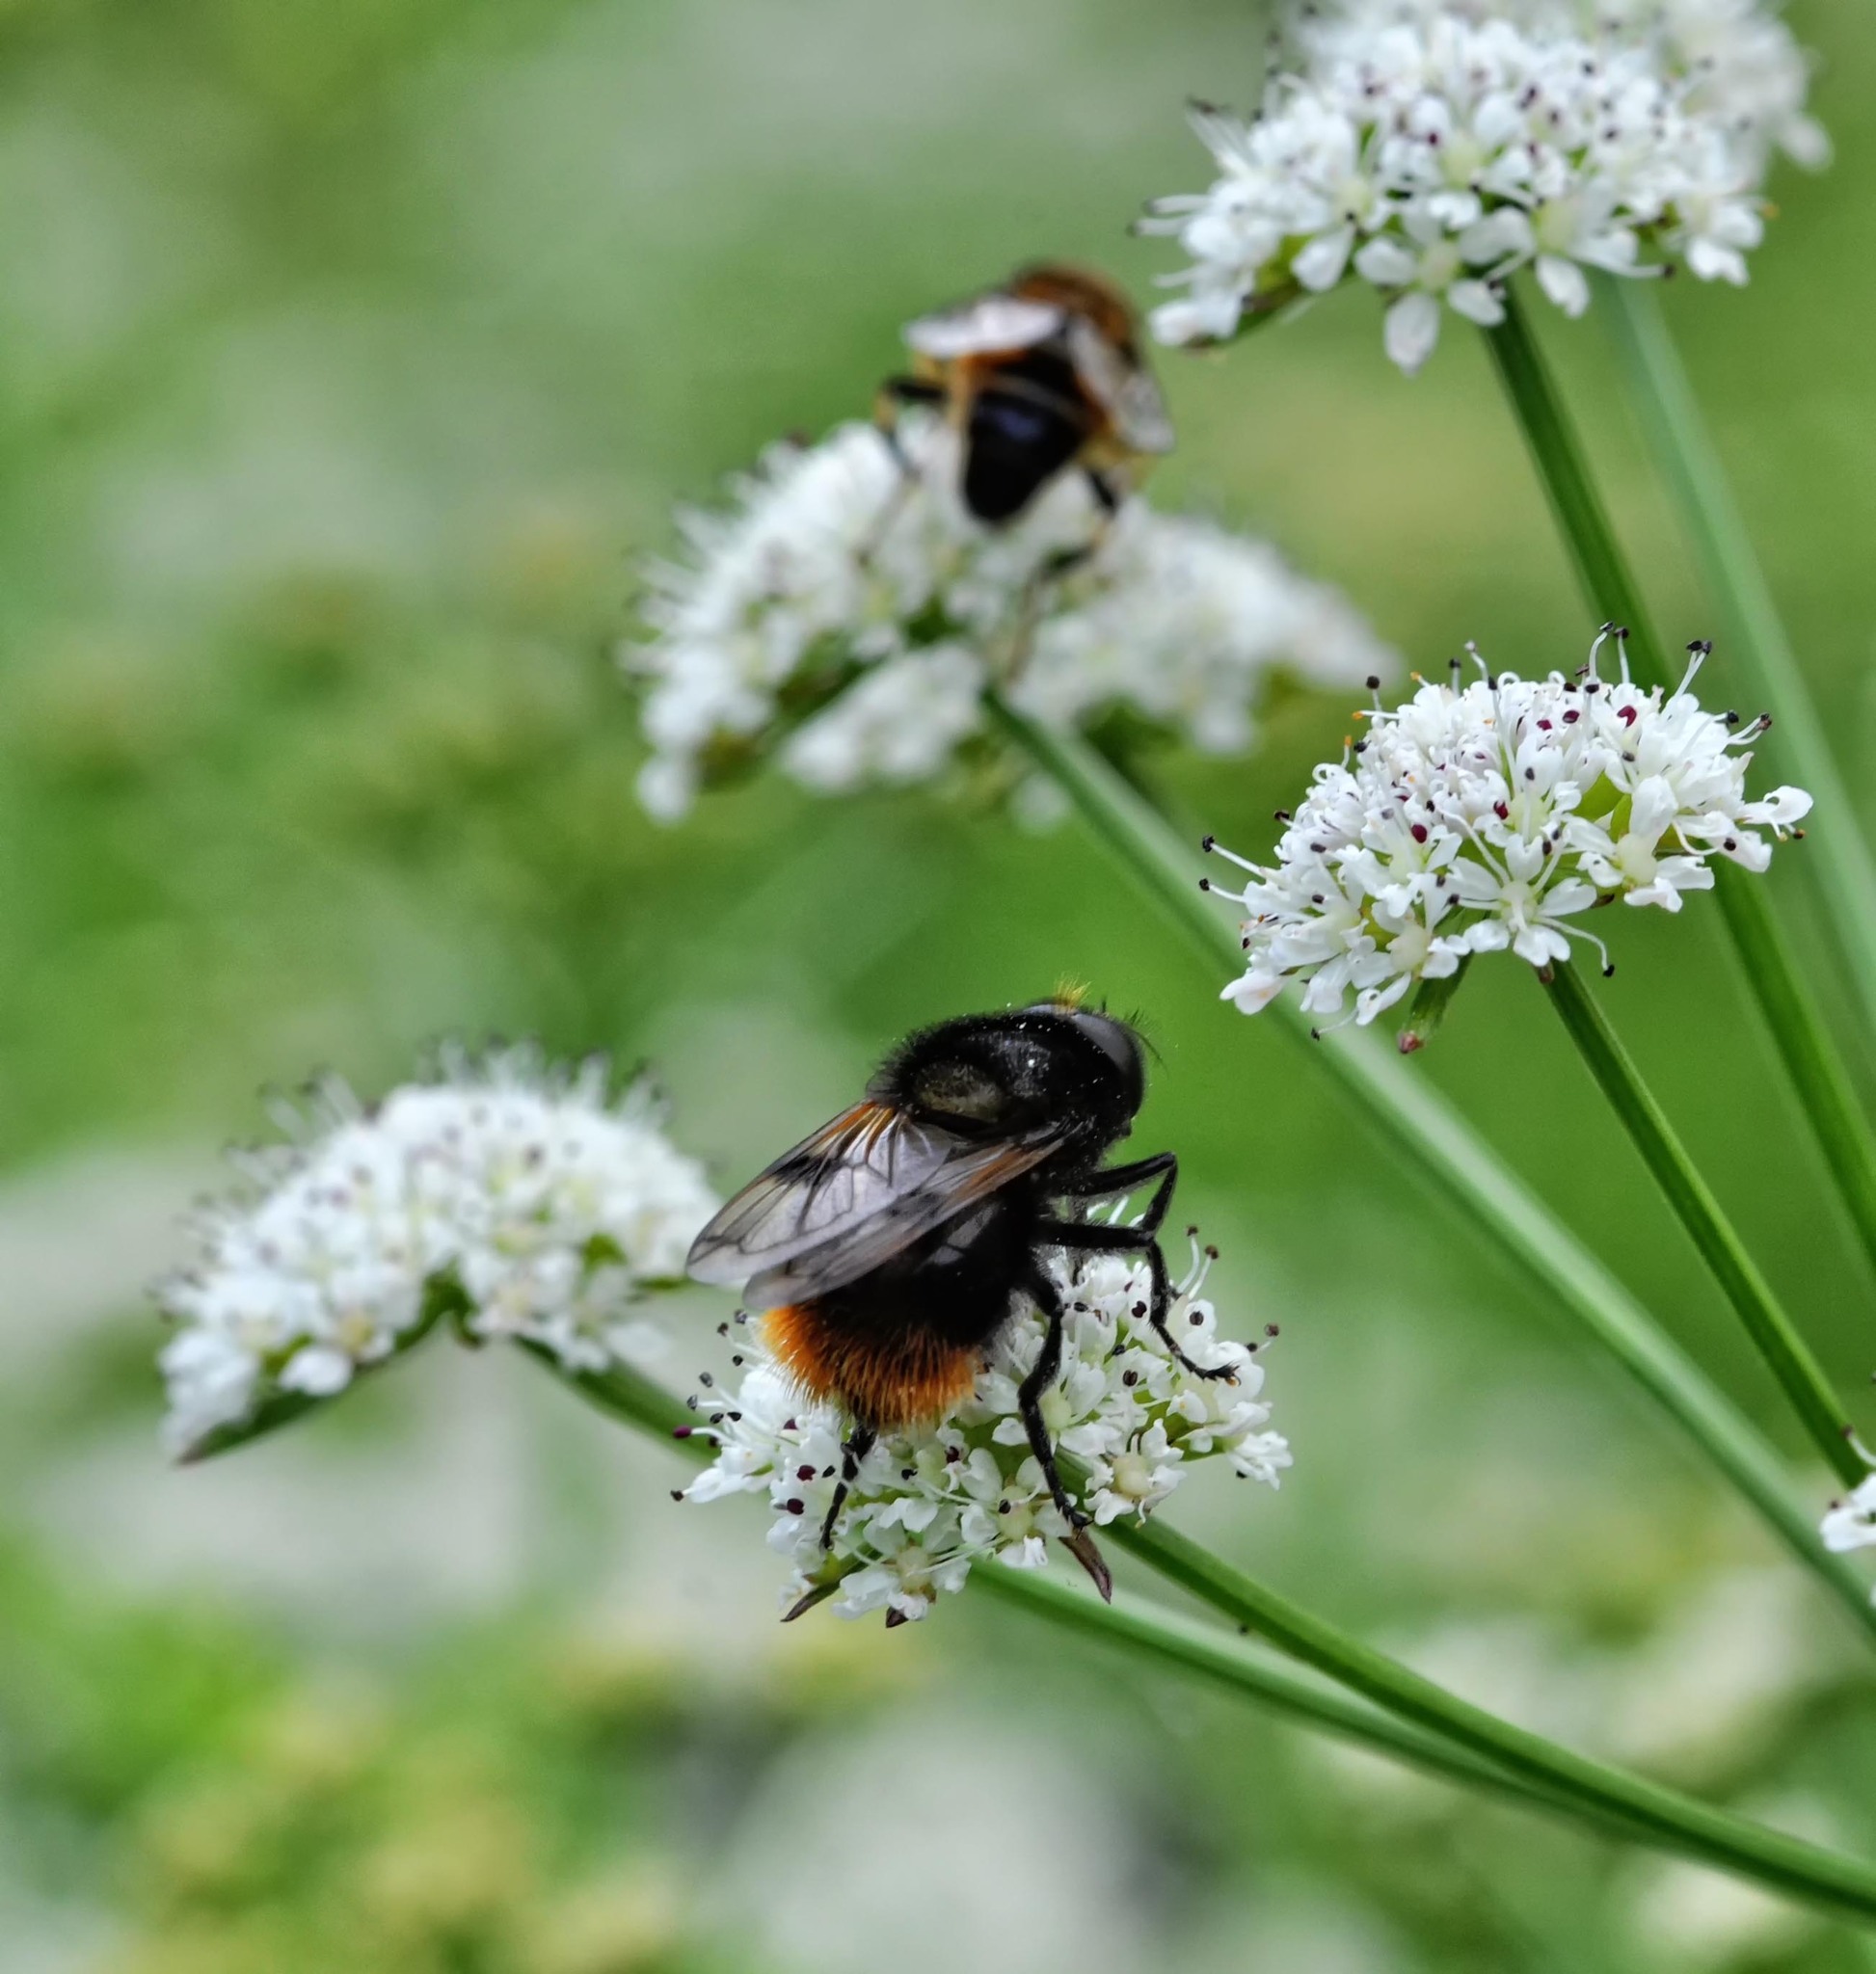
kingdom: Animalia
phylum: Arthropoda
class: Insecta
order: Diptera
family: Syrphidae
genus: Volucella
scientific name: Volucella bombylans
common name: Bumble bee hover fly
